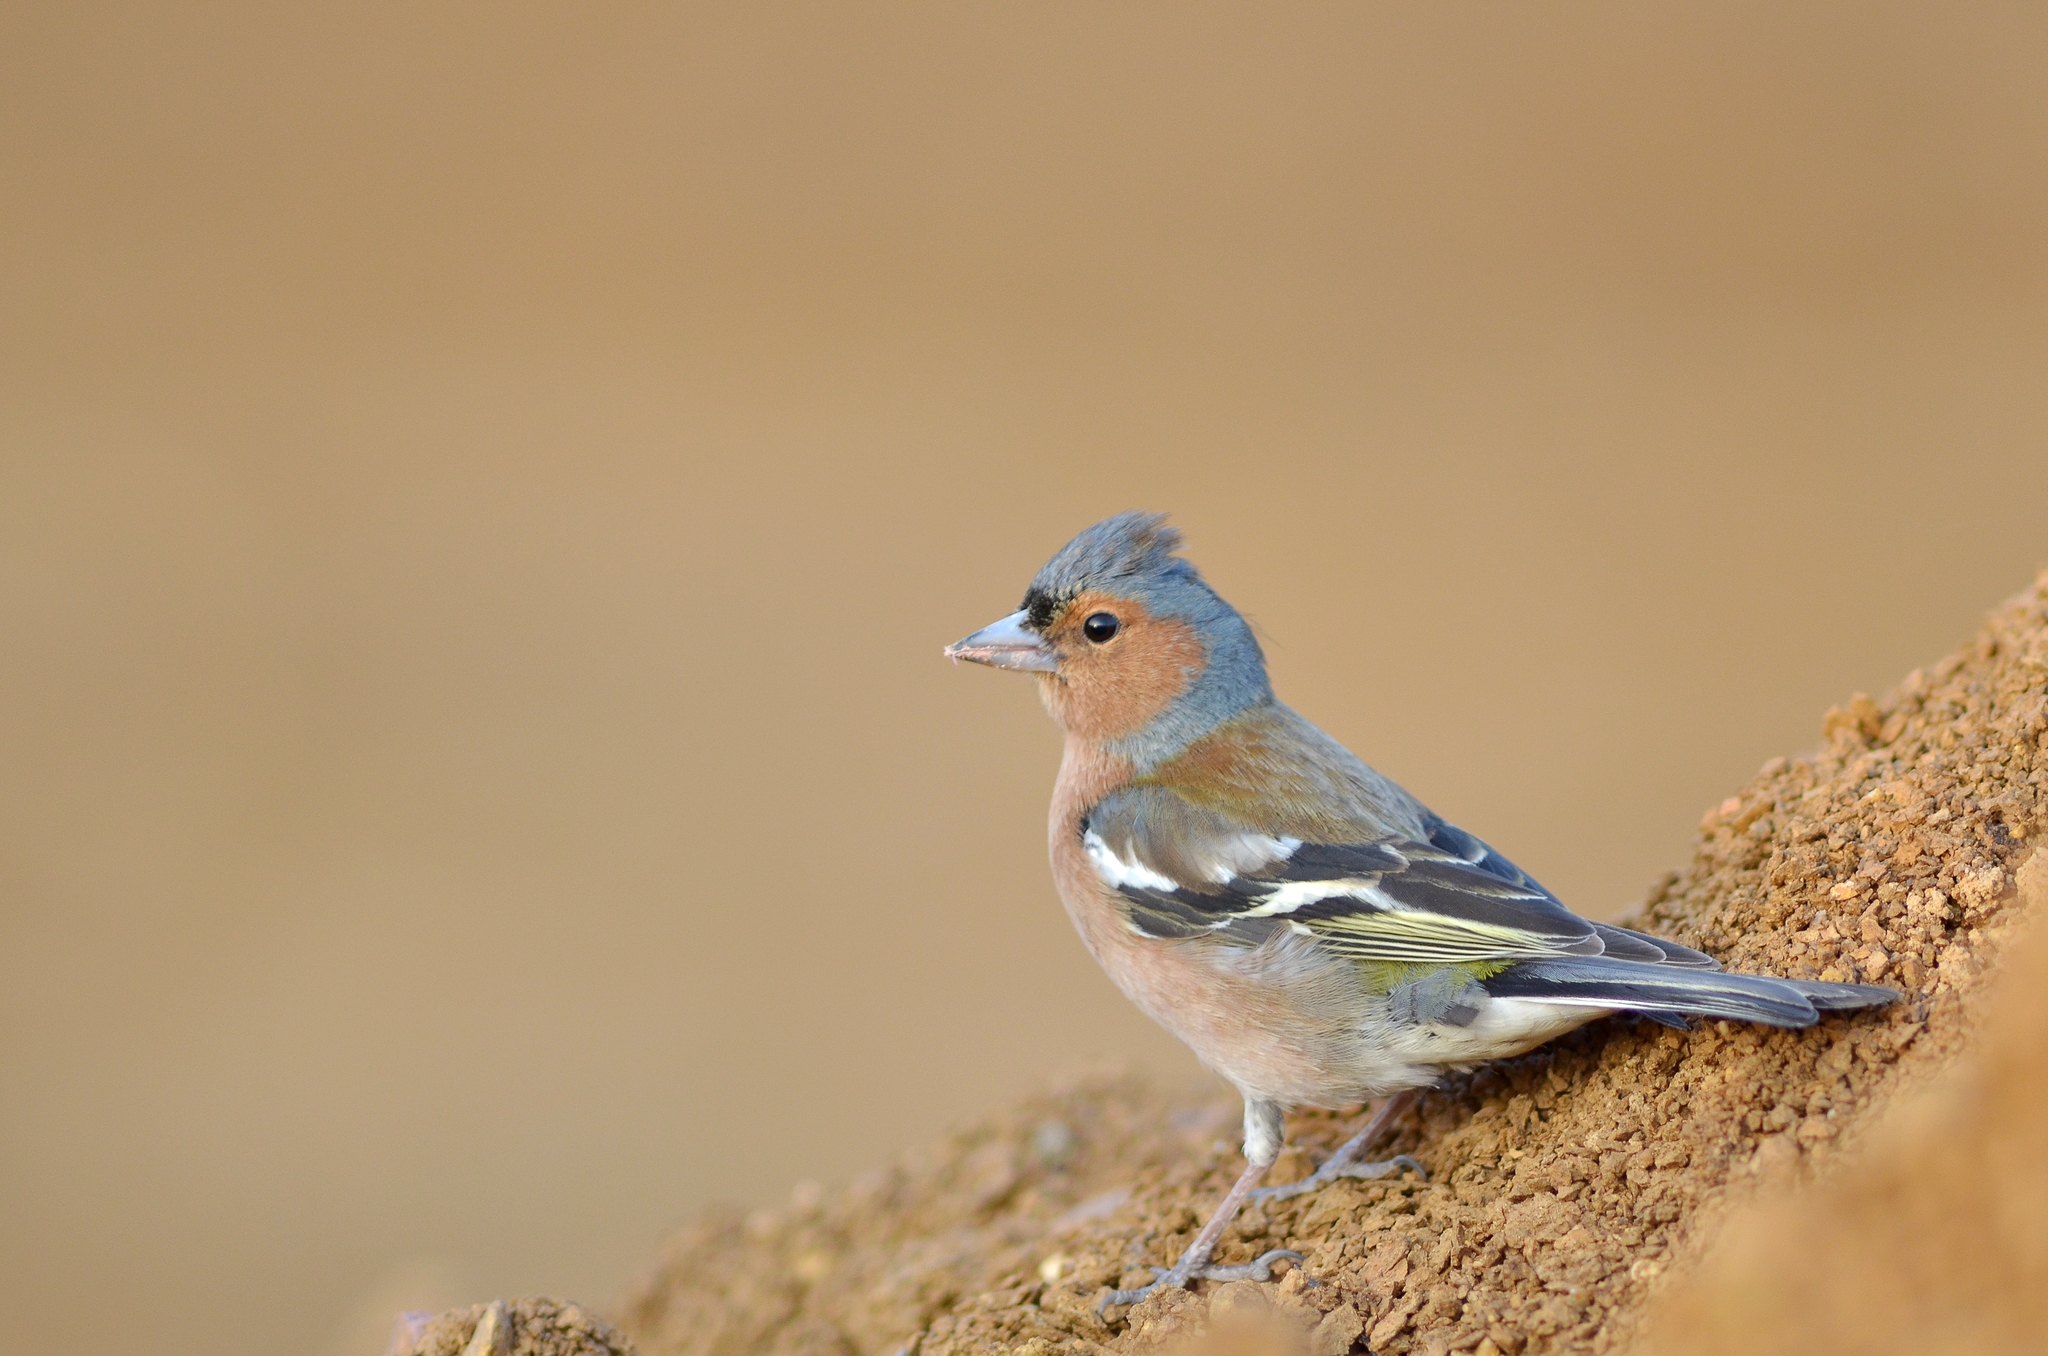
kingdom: Animalia
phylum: Chordata
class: Aves
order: Passeriformes
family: Fringillidae
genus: Fringilla
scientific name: Fringilla coelebs
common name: Common chaffinch
